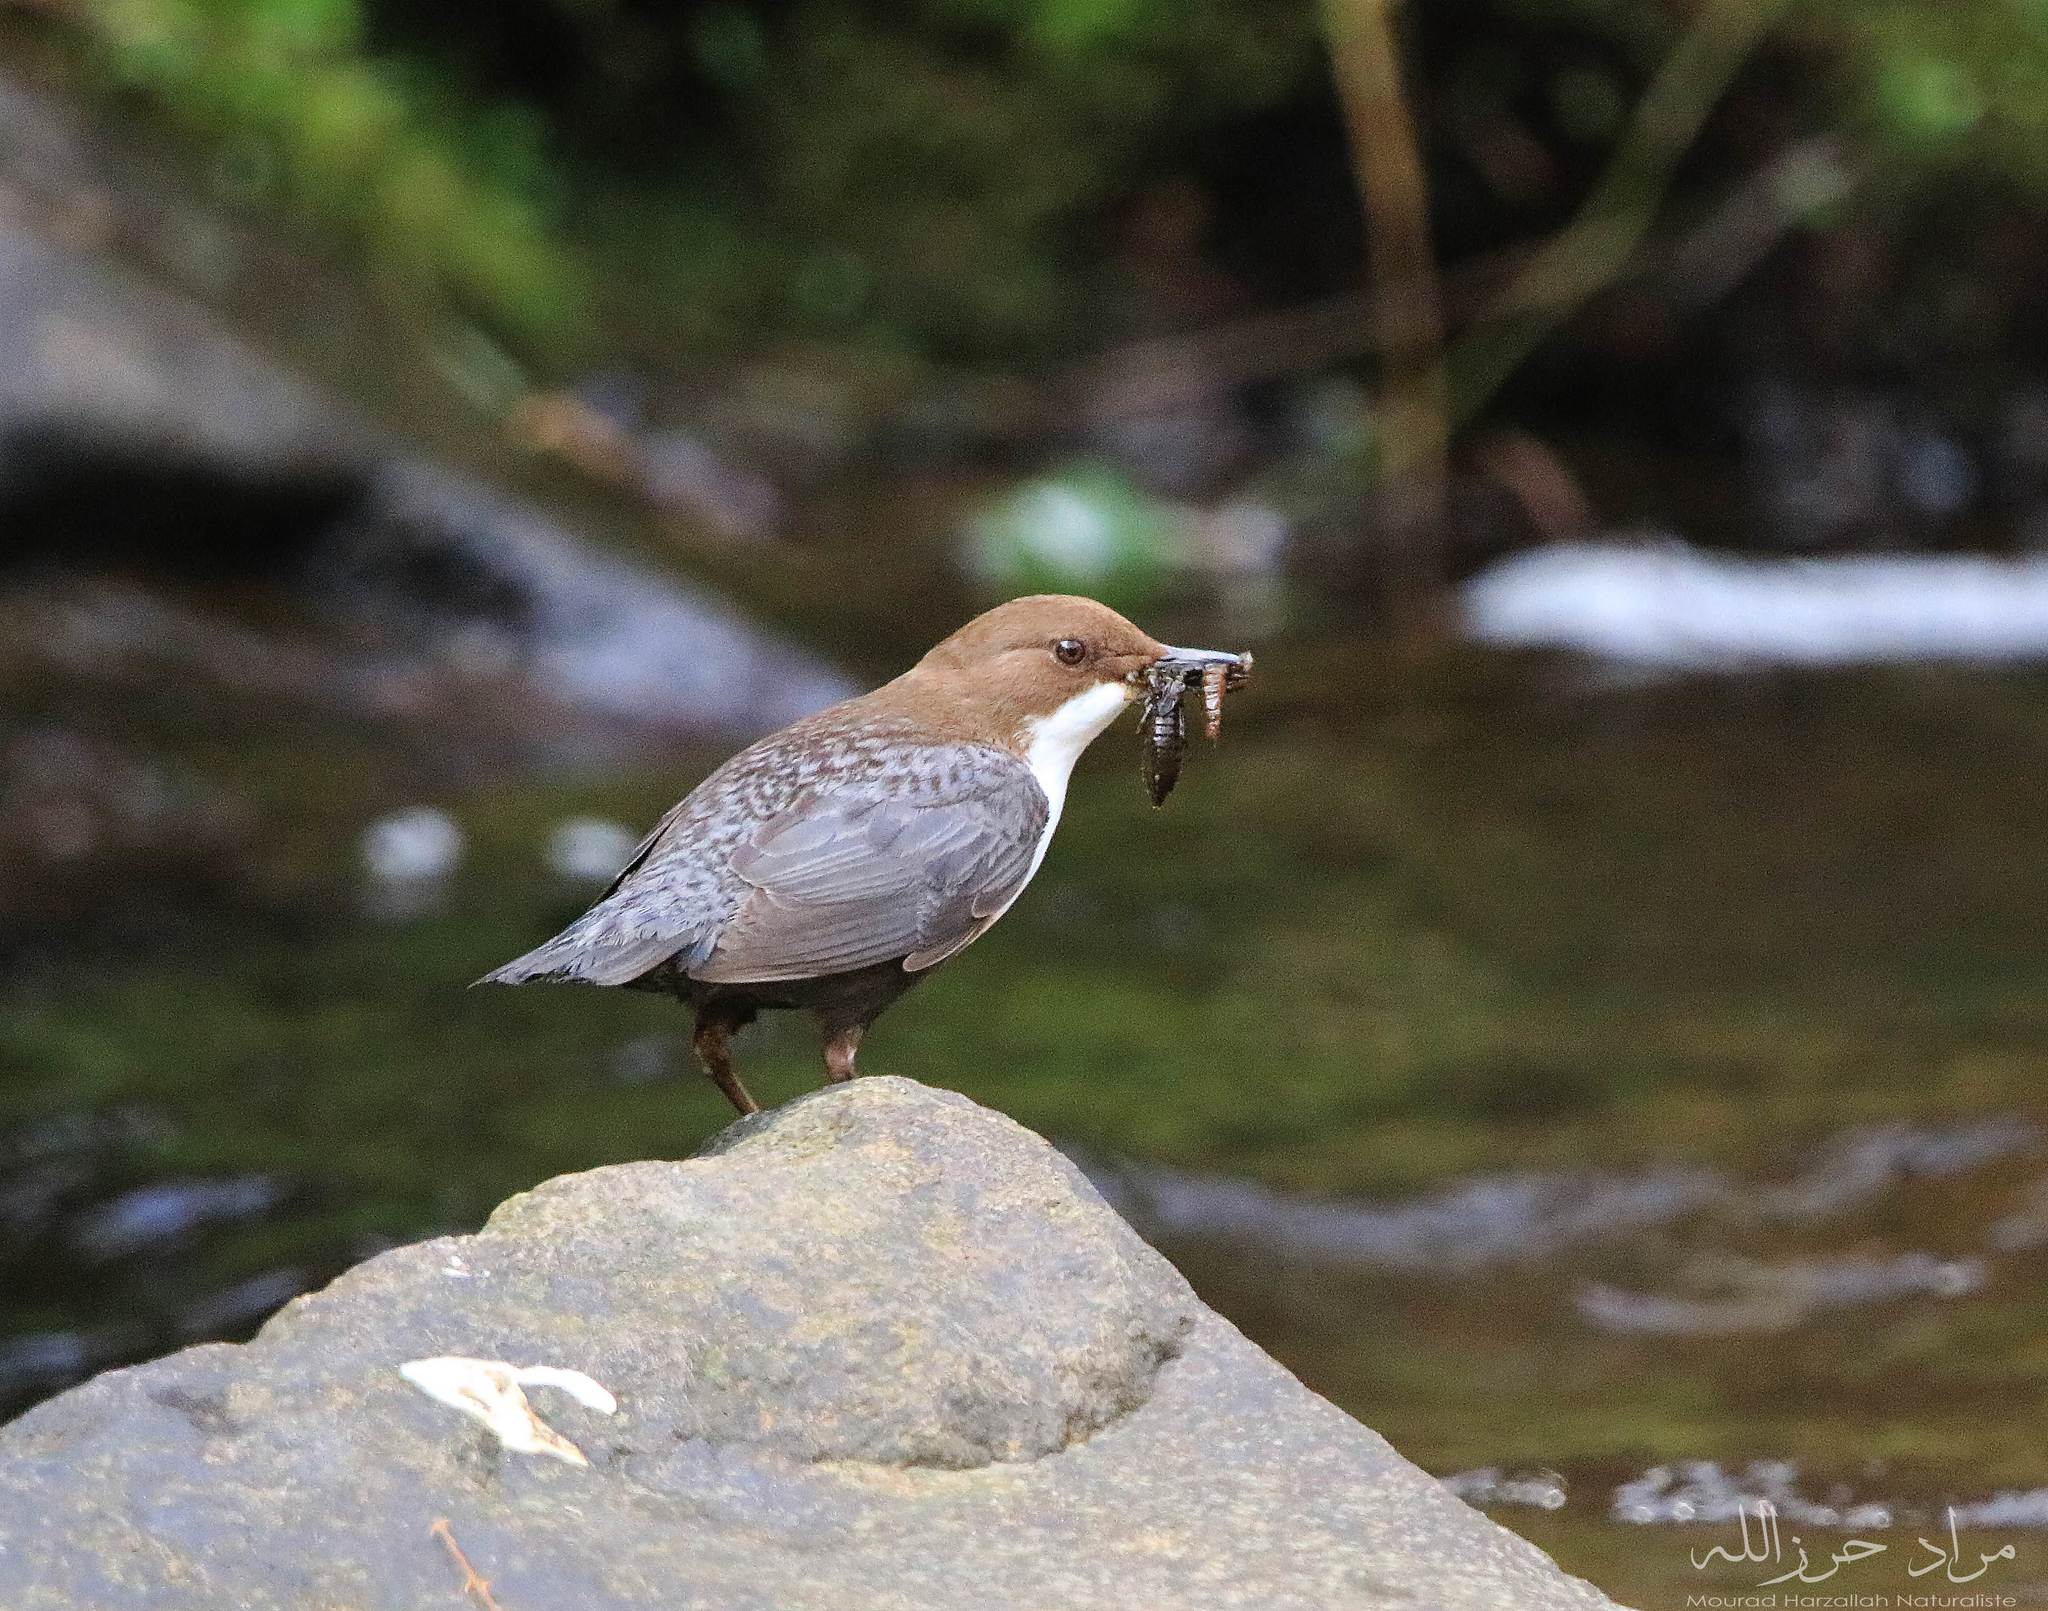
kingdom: Animalia
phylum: Chordata
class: Aves
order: Passeriformes
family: Cinclidae
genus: Cinclus
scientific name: Cinclus cinclus
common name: White-throated dipper
